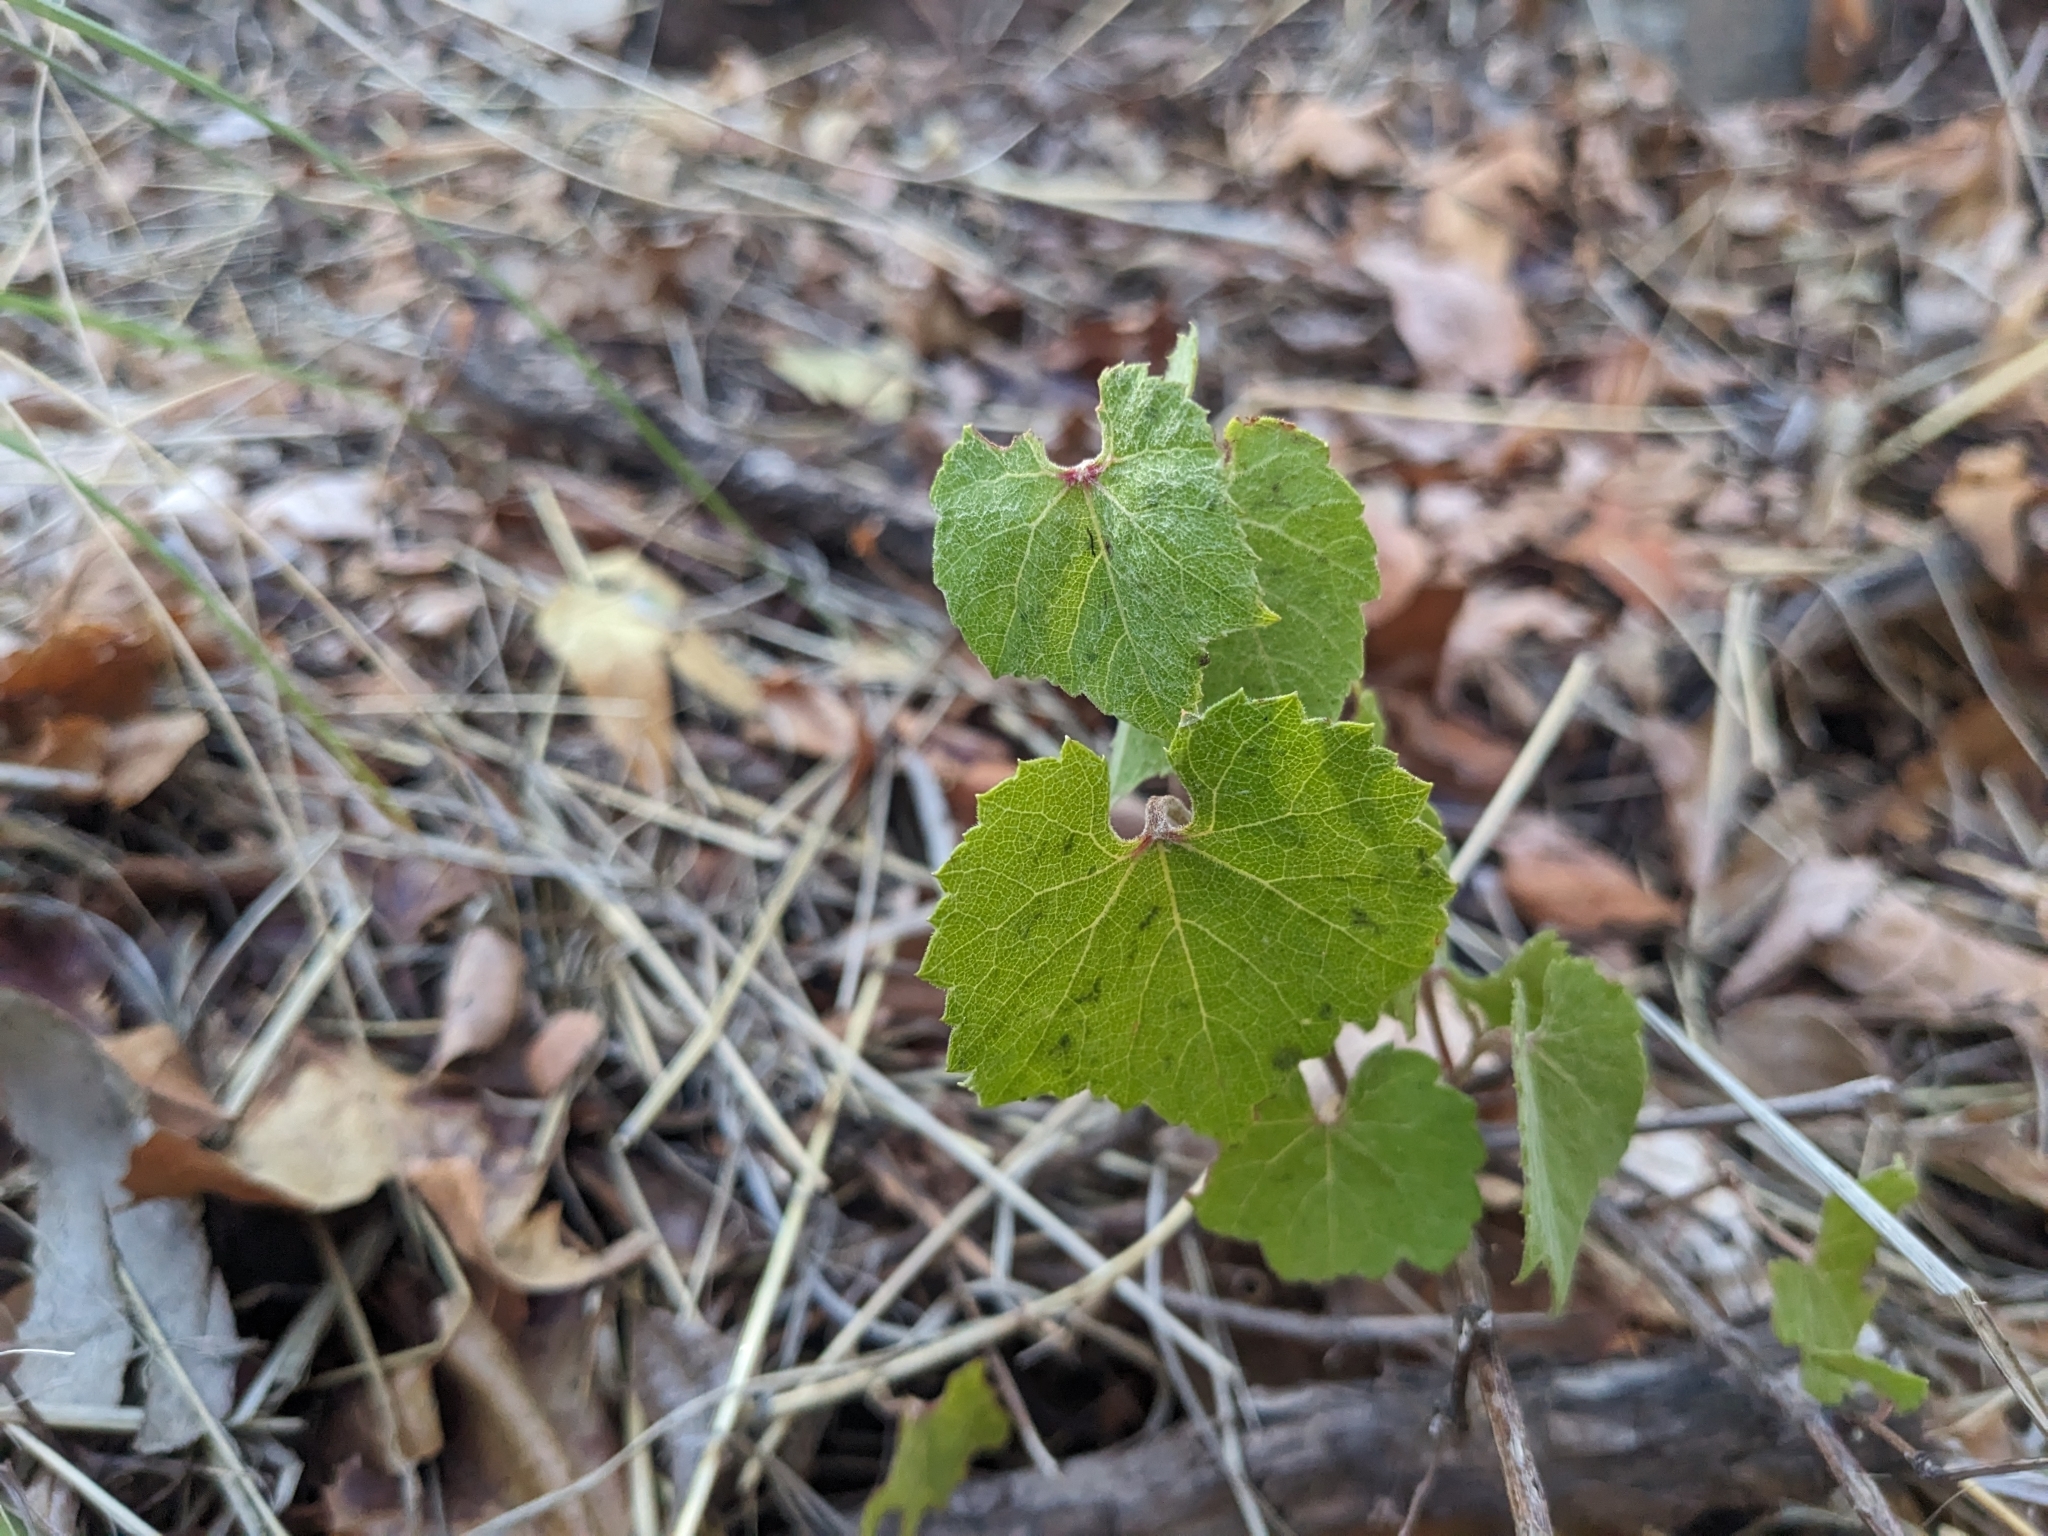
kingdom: Plantae
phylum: Tracheophyta
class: Magnoliopsida
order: Vitales
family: Vitaceae
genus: Vitis
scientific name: Vitis arizonica
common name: Canyon grape
